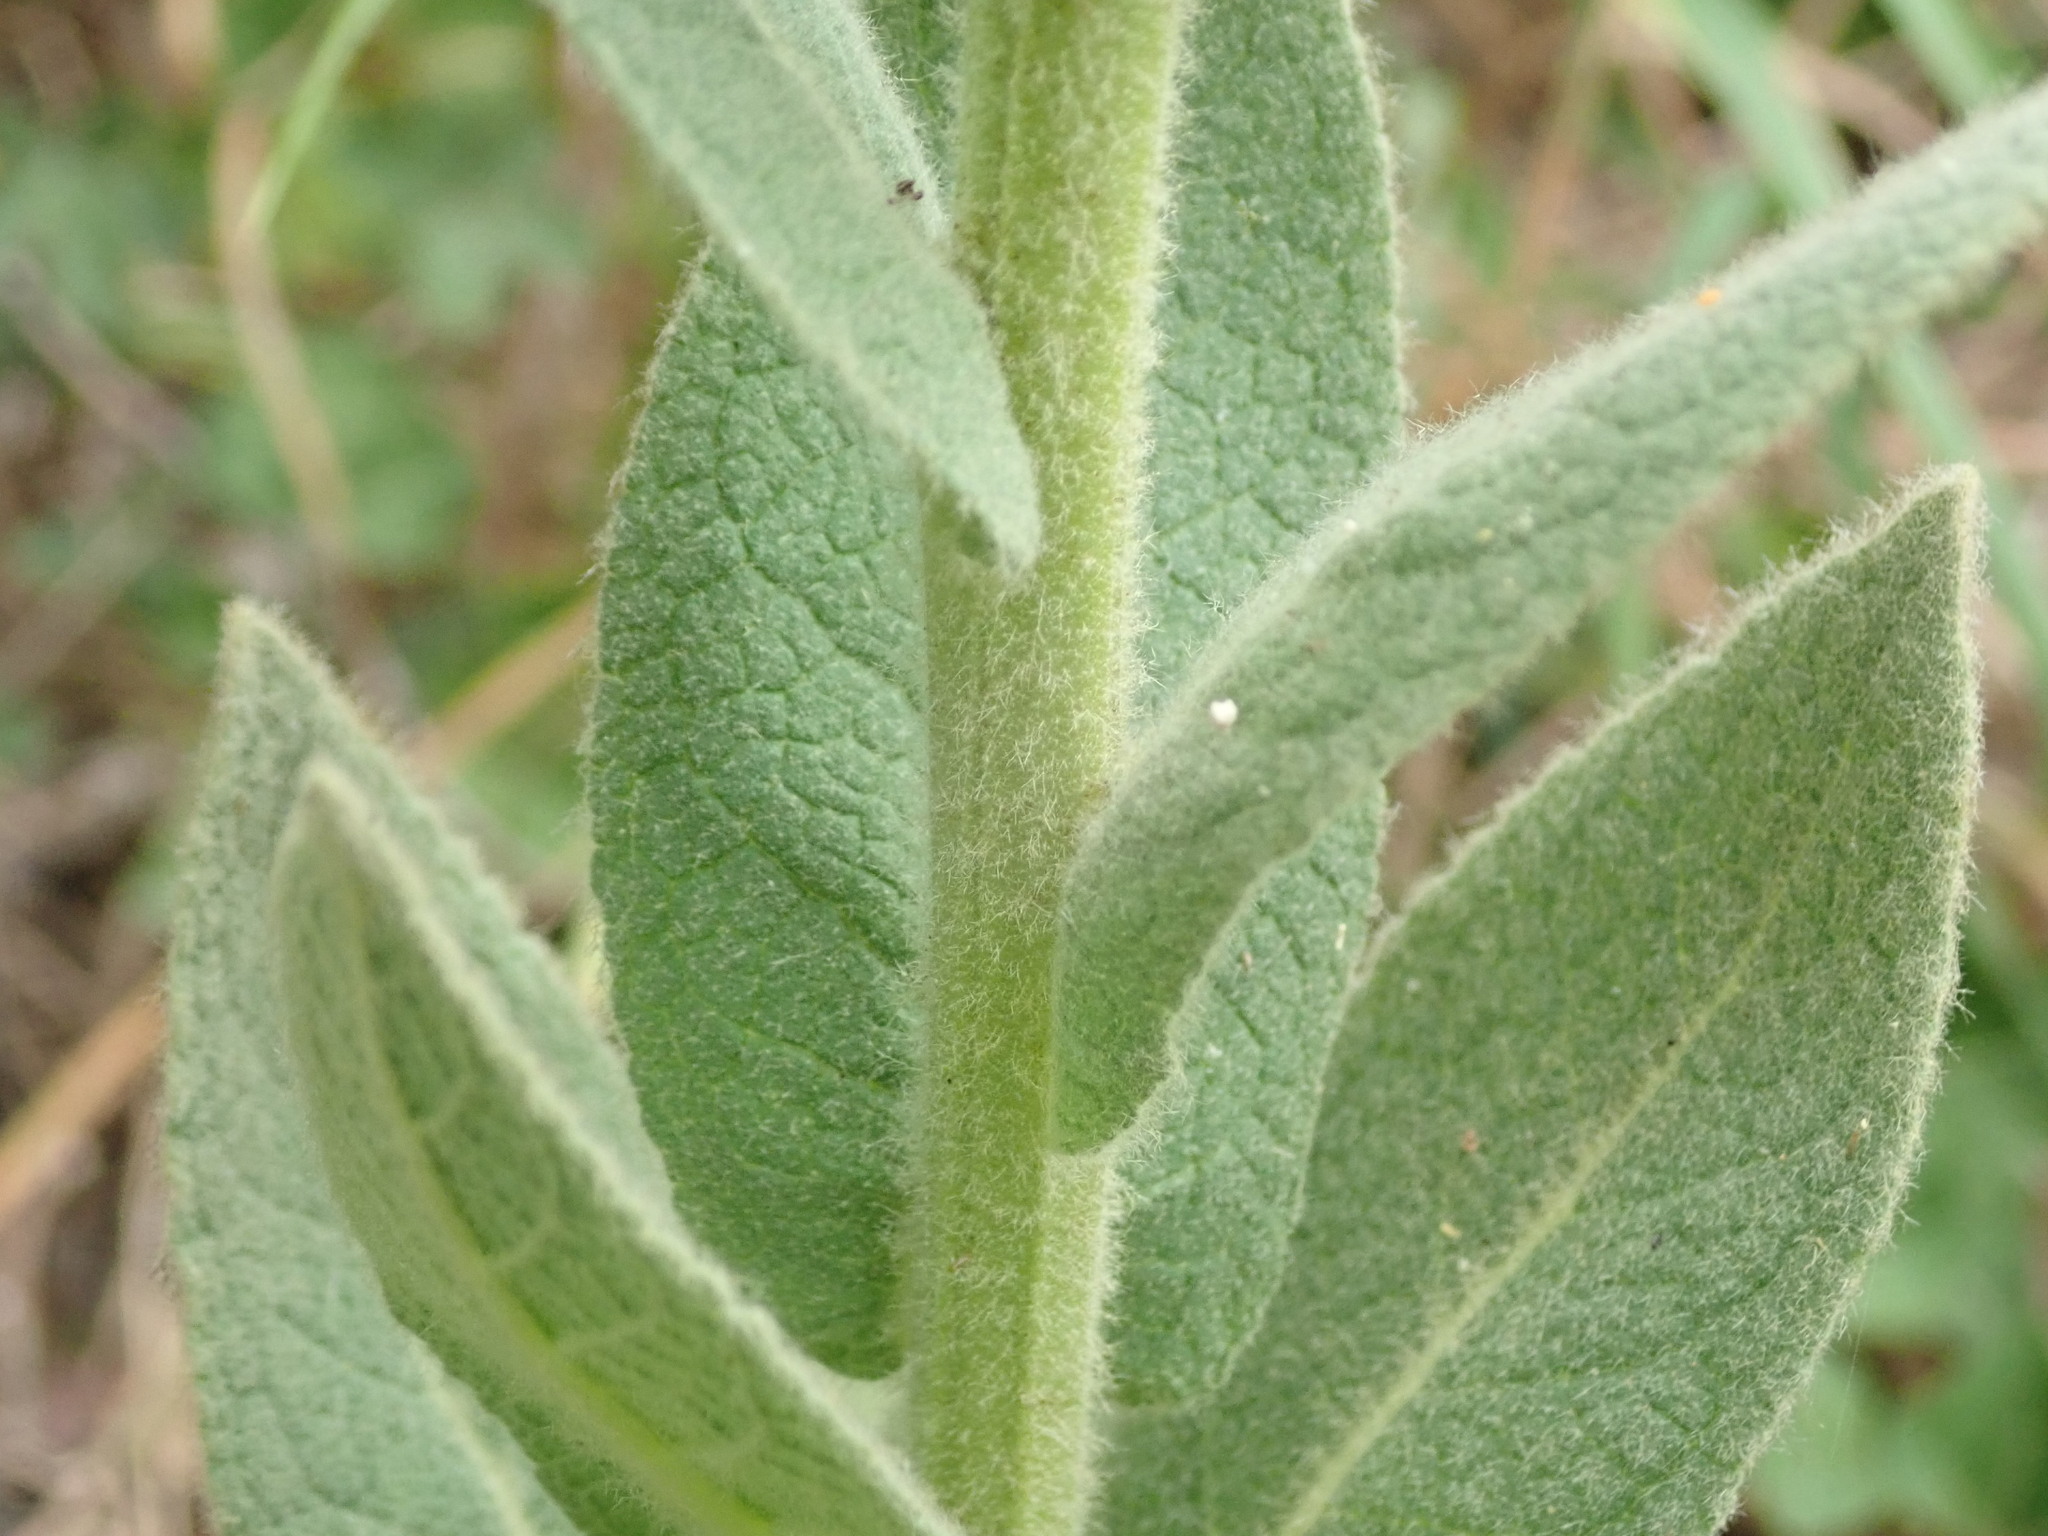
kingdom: Plantae
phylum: Tracheophyta
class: Magnoliopsida
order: Lamiales
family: Scrophulariaceae
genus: Verbascum
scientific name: Verbascum densiflorum
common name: Dense-flowered mullein
